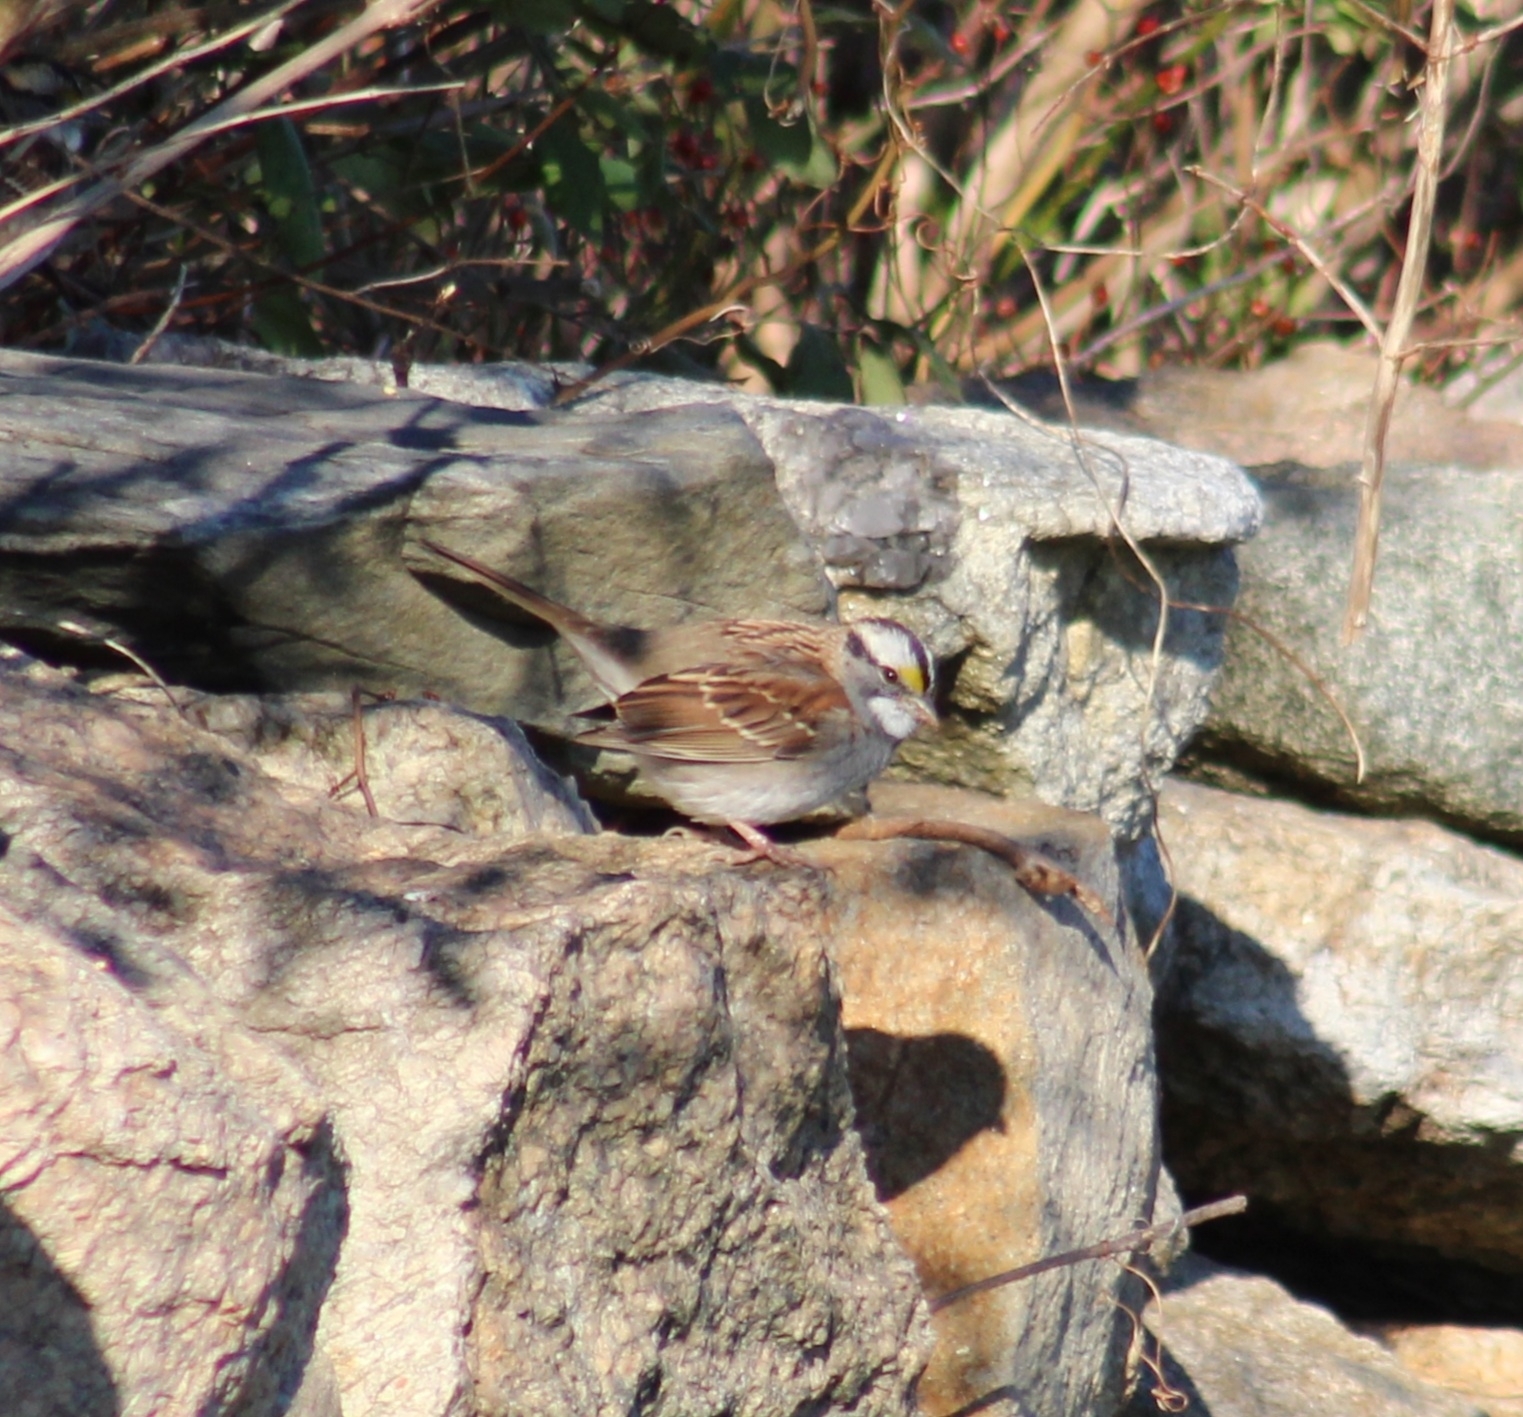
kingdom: Animalia
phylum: Chordata
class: Aves
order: Passeriformes
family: Passerellidae
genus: Zonotrichia
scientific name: Zonotrichia albicollis
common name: White-throated sparrow
